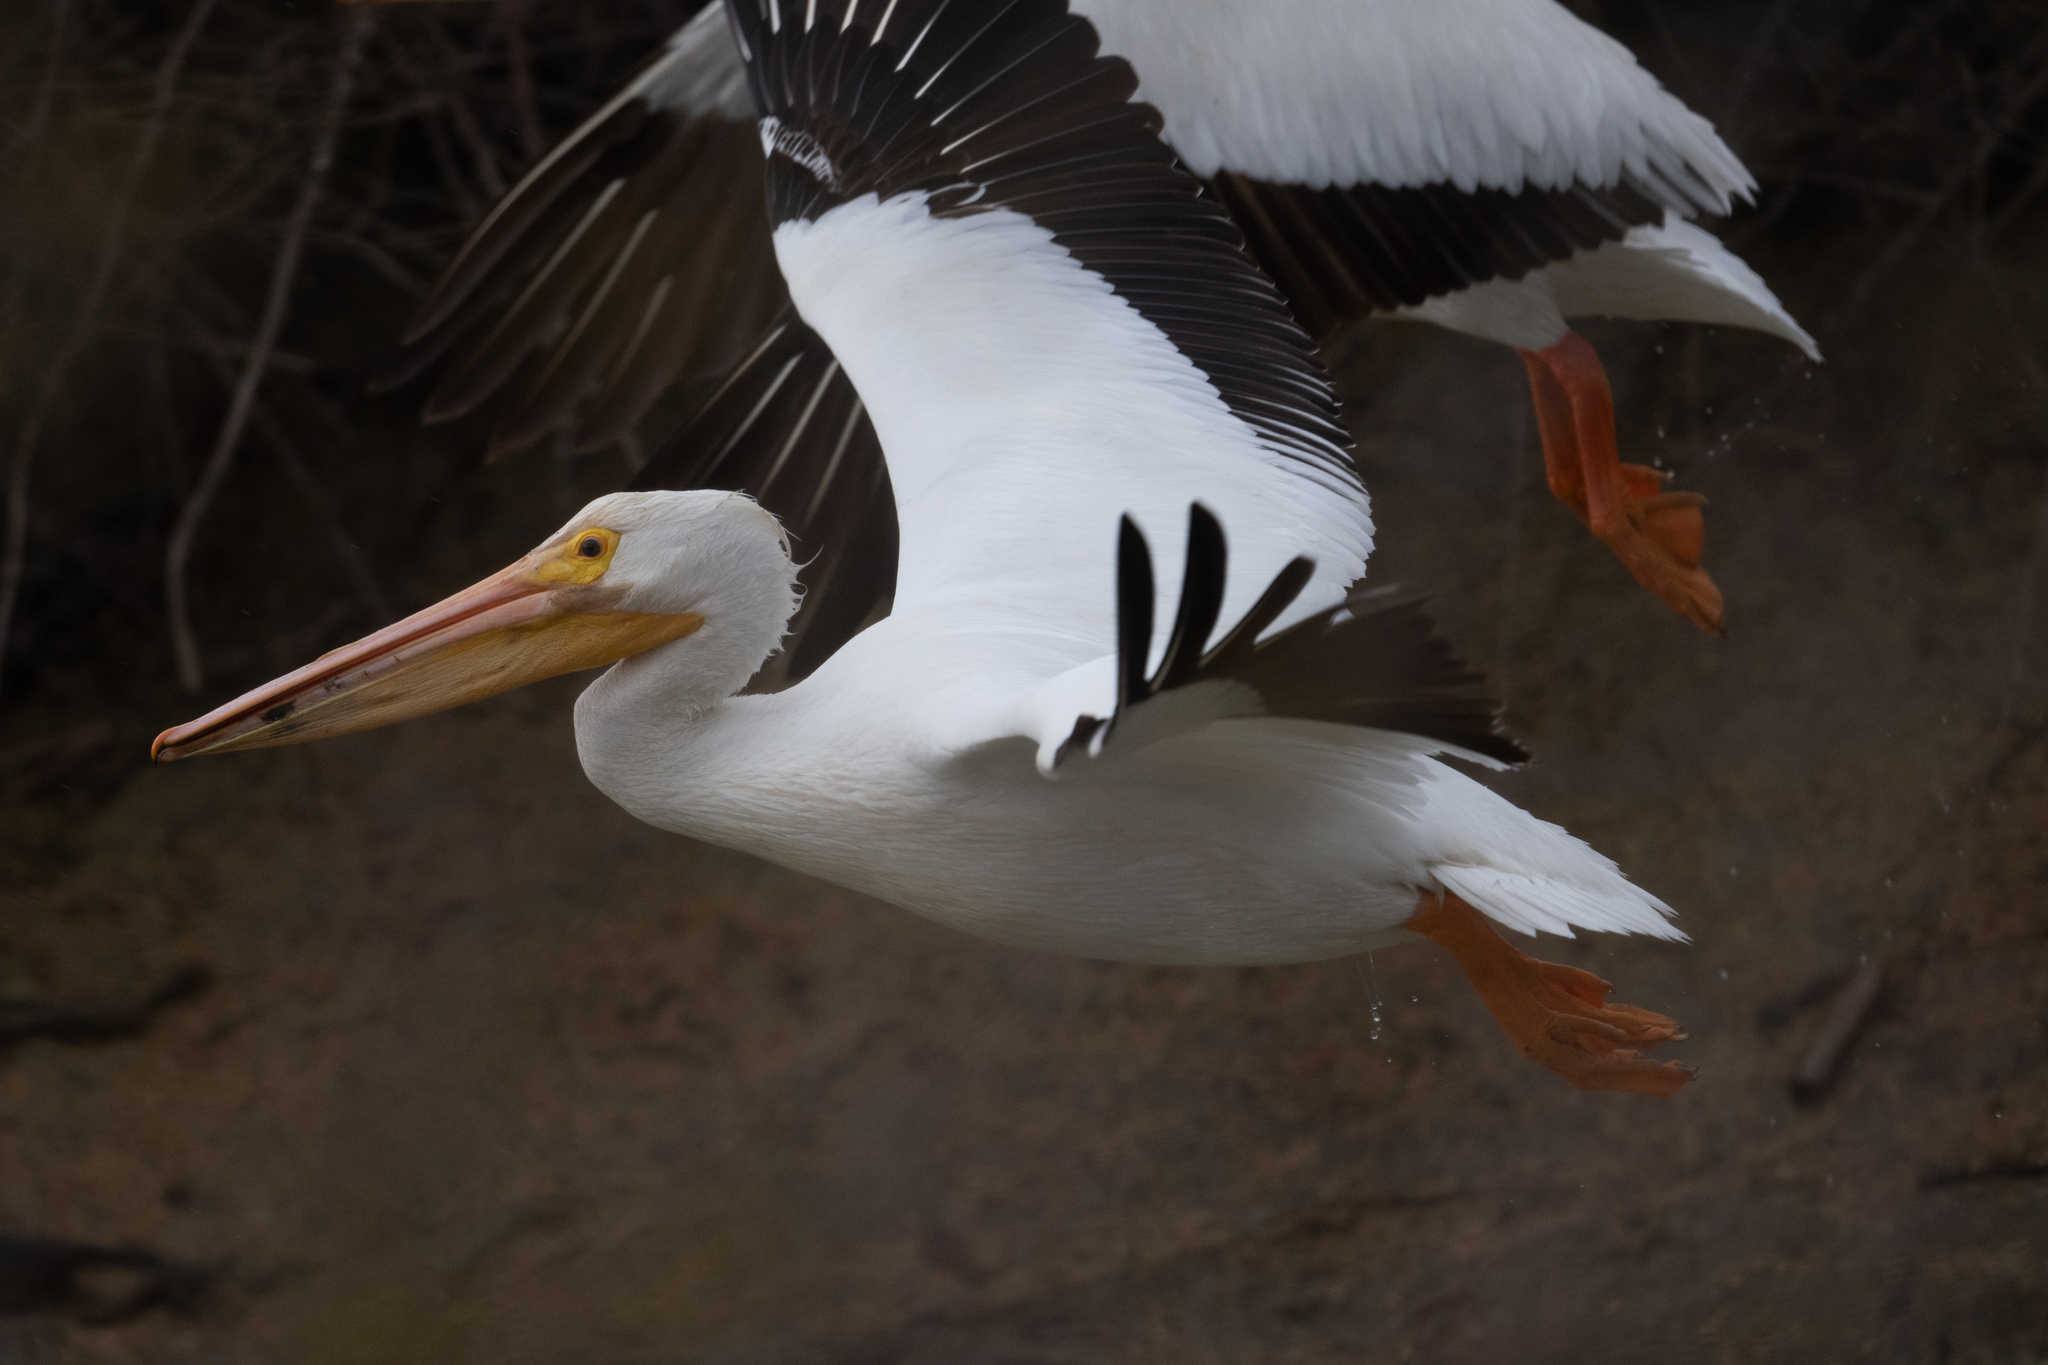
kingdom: Animalia
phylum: Chordata
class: Aves
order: Pelecaniformes
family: Pelecanidae
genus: Pelecanus
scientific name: Pelecanus erythrorhynchos
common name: American white pelican
